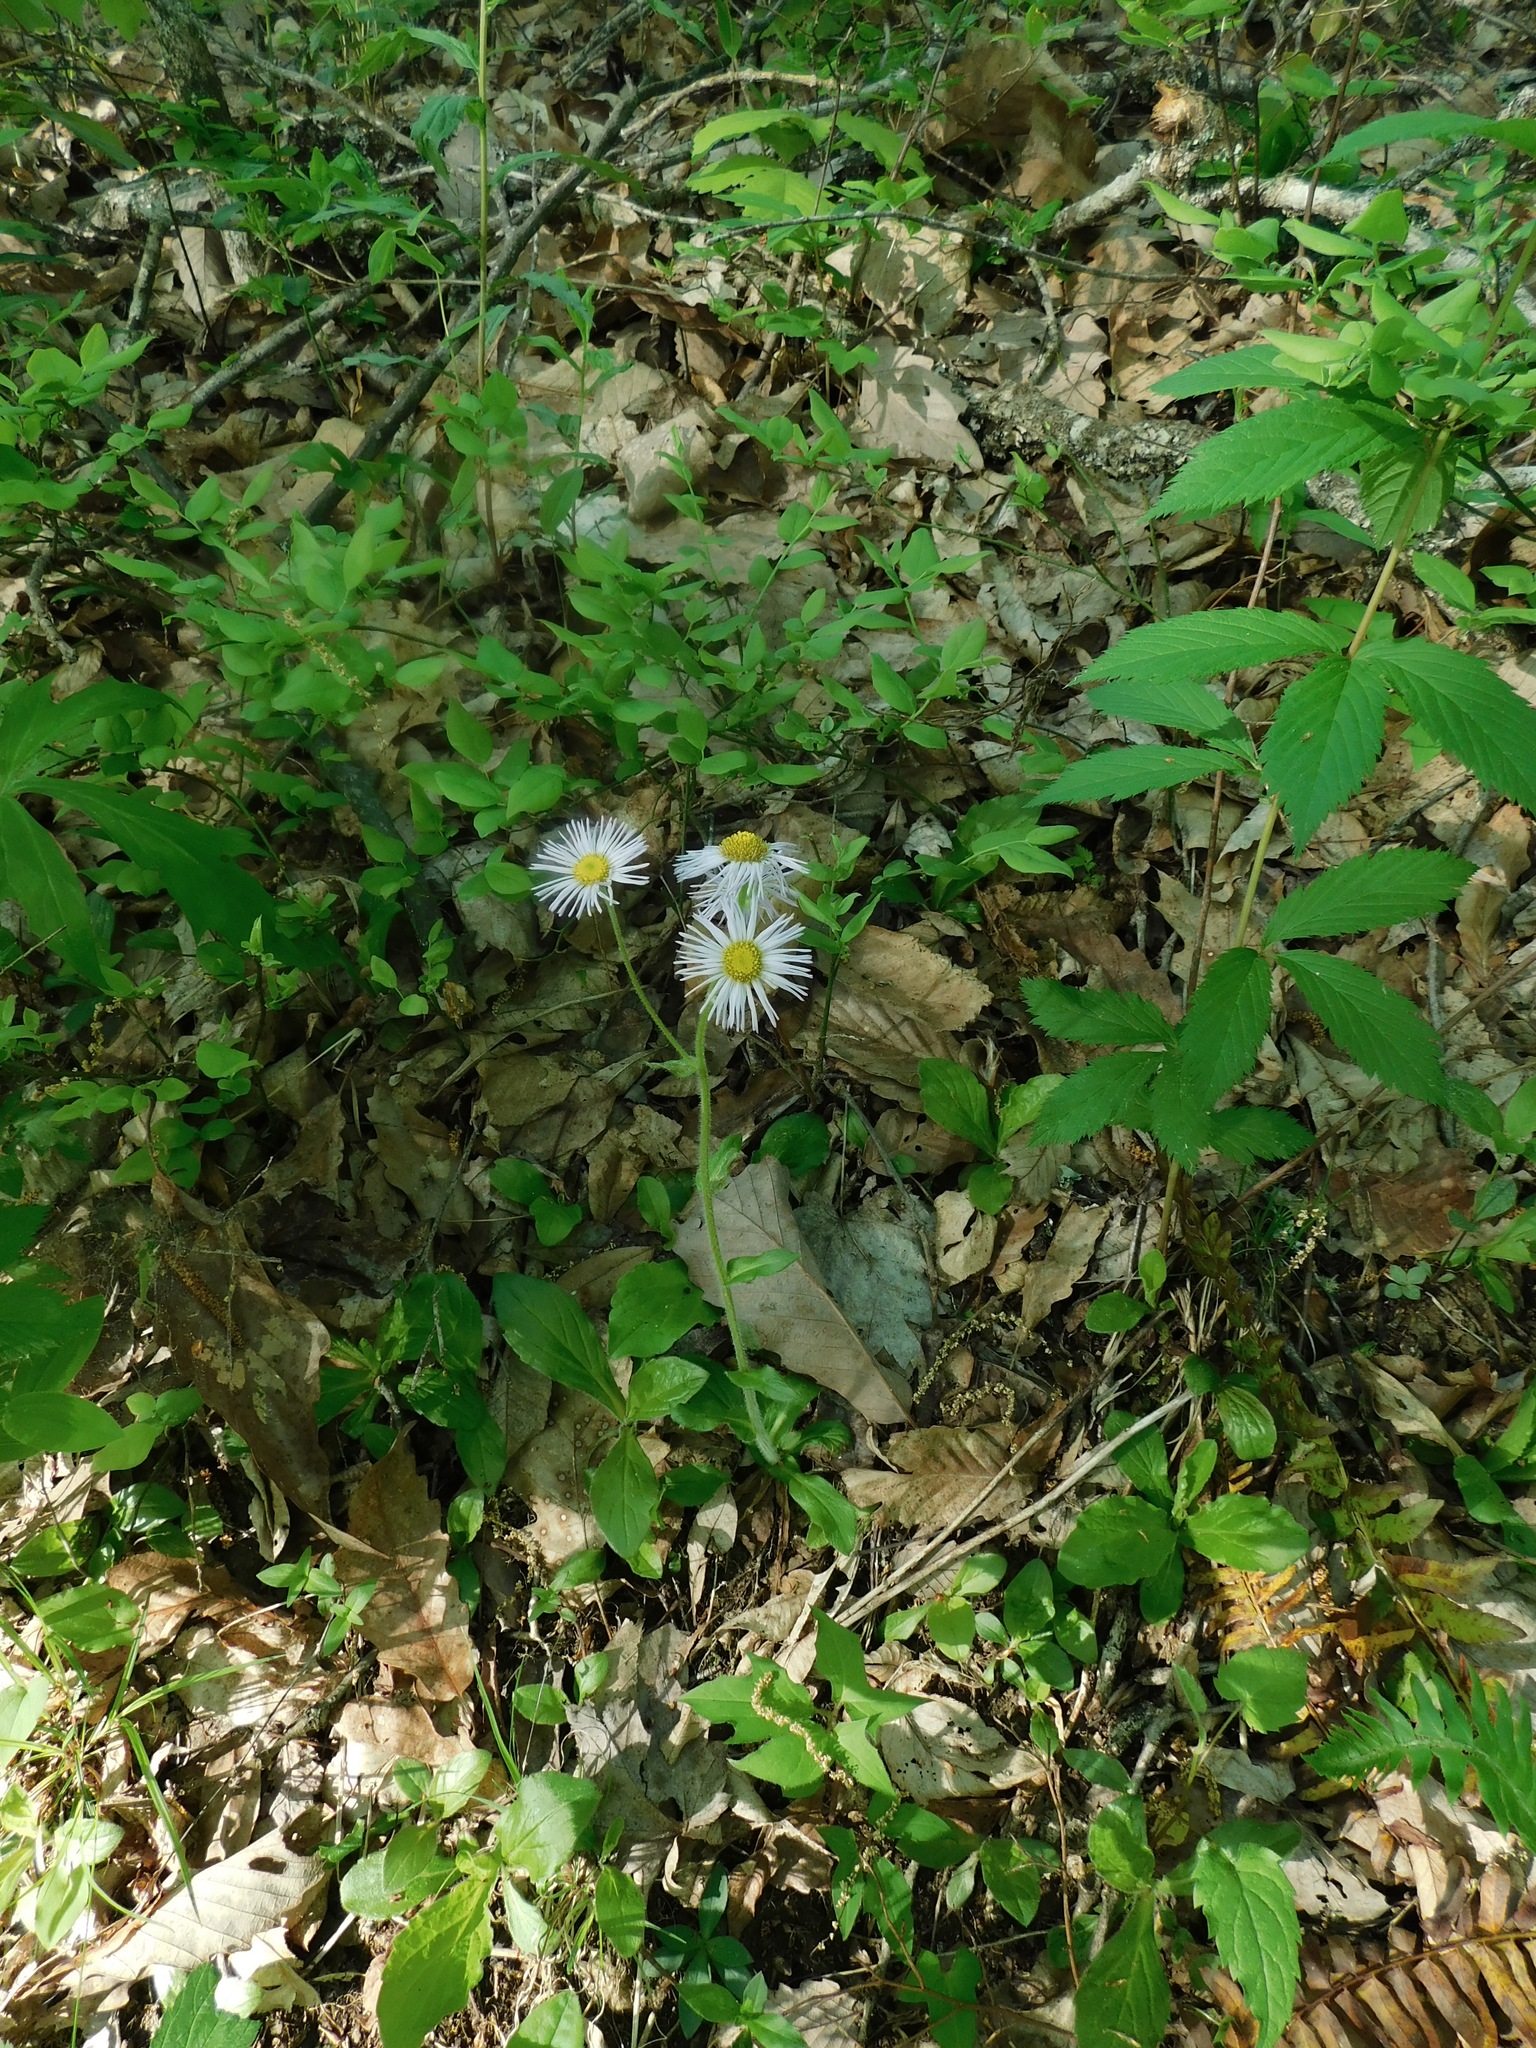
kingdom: Plantae
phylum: Tracheophyta
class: Magnoliopsida
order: Asterales
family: Asteraceae
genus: Erigeron
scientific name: Erigeron pulchellus
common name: Hairy fleabane
